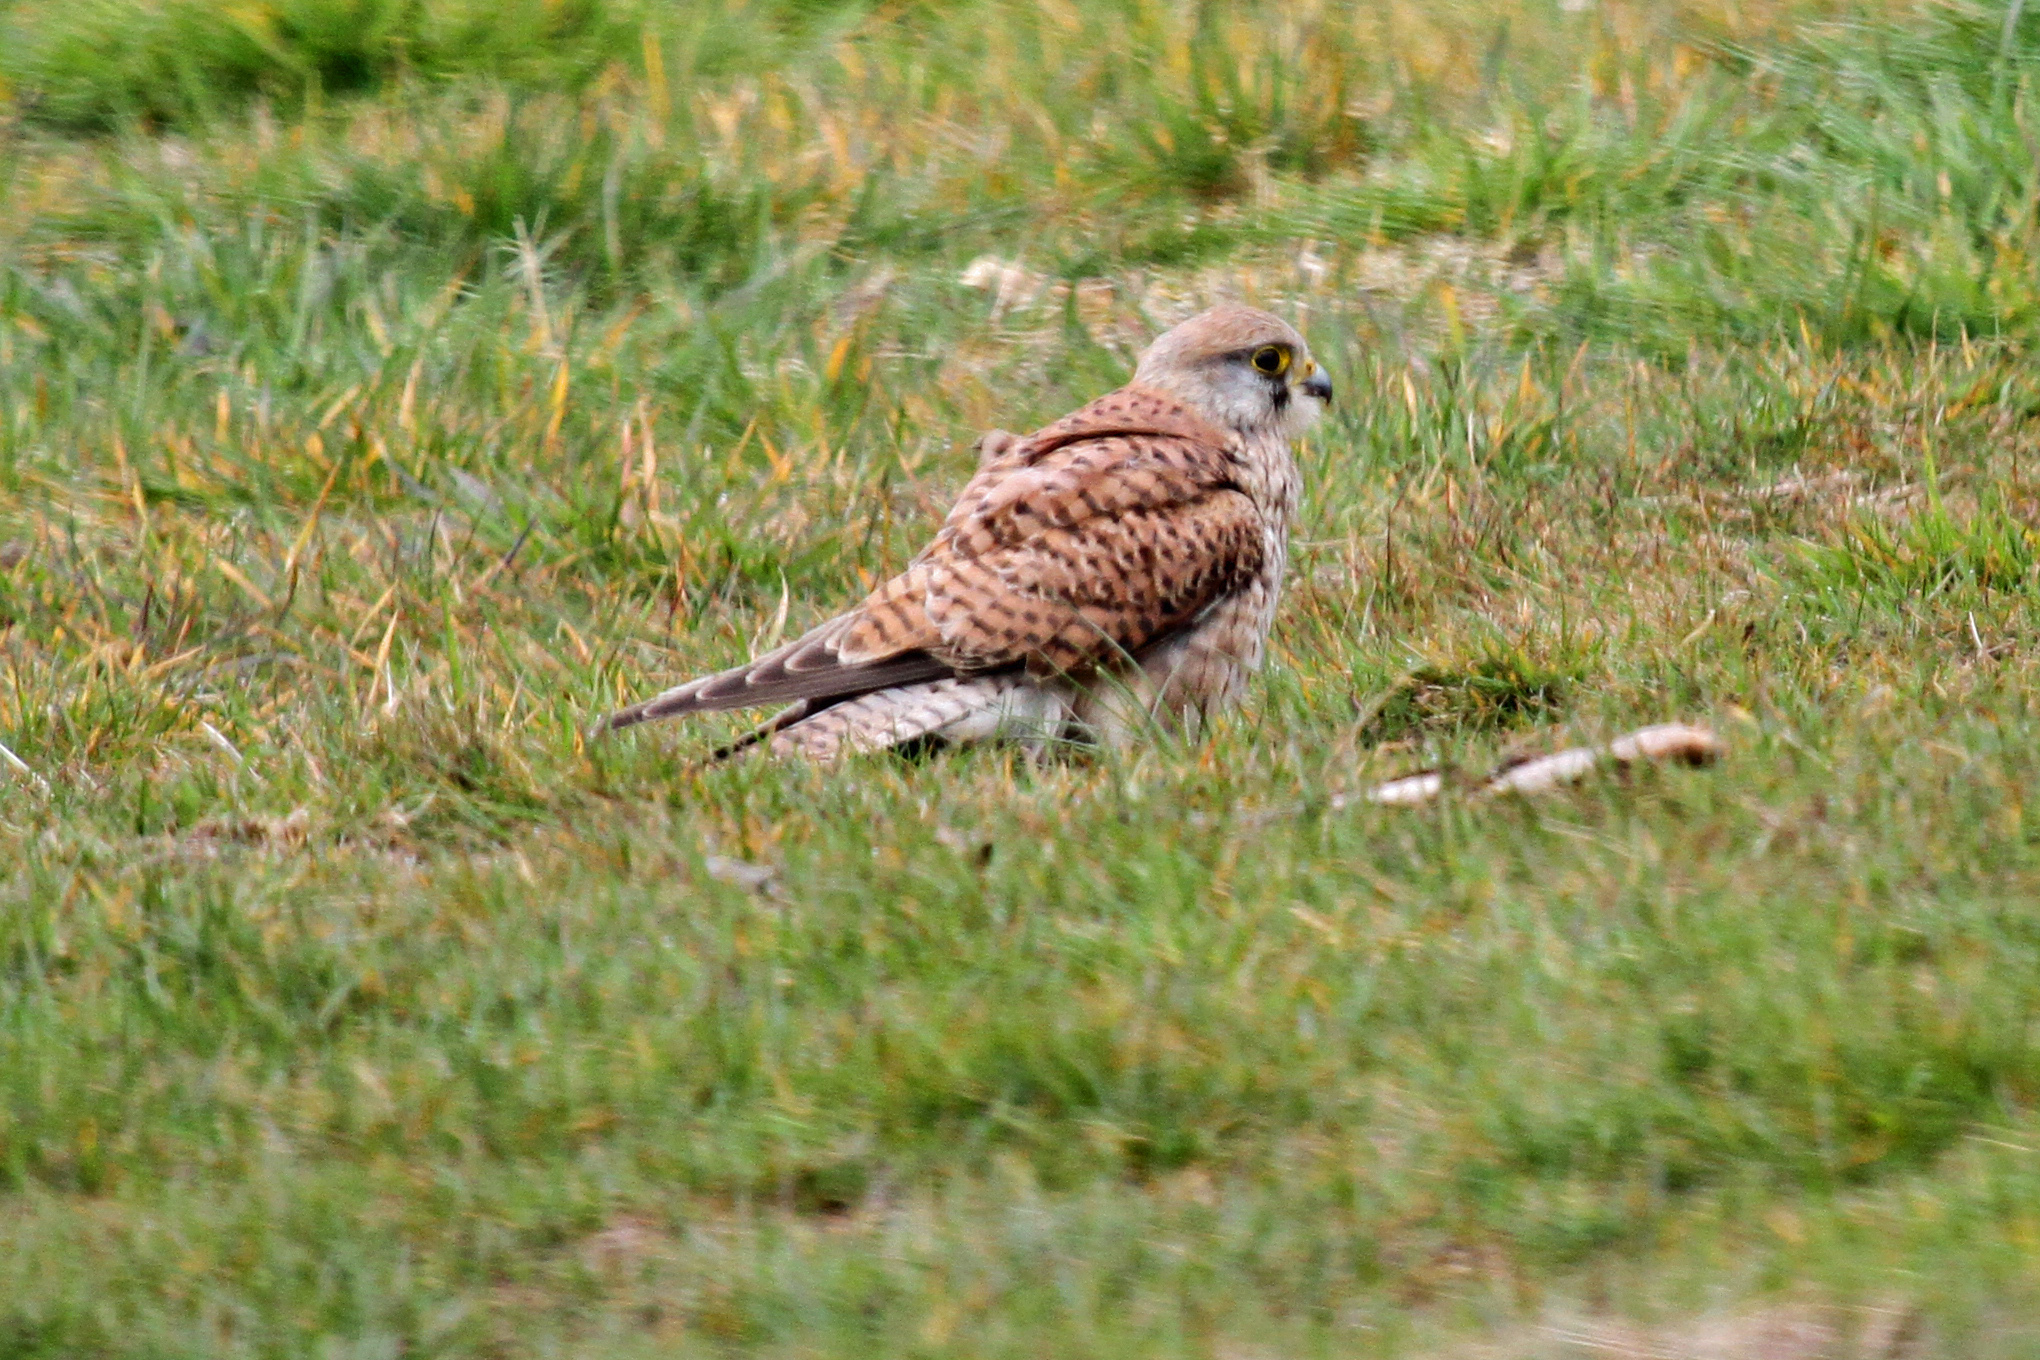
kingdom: Animalia
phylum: Chordata
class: Aves
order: Falconiformes
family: Falconidae
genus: Falco
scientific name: Falco tinnunculus
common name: Common kestrel
